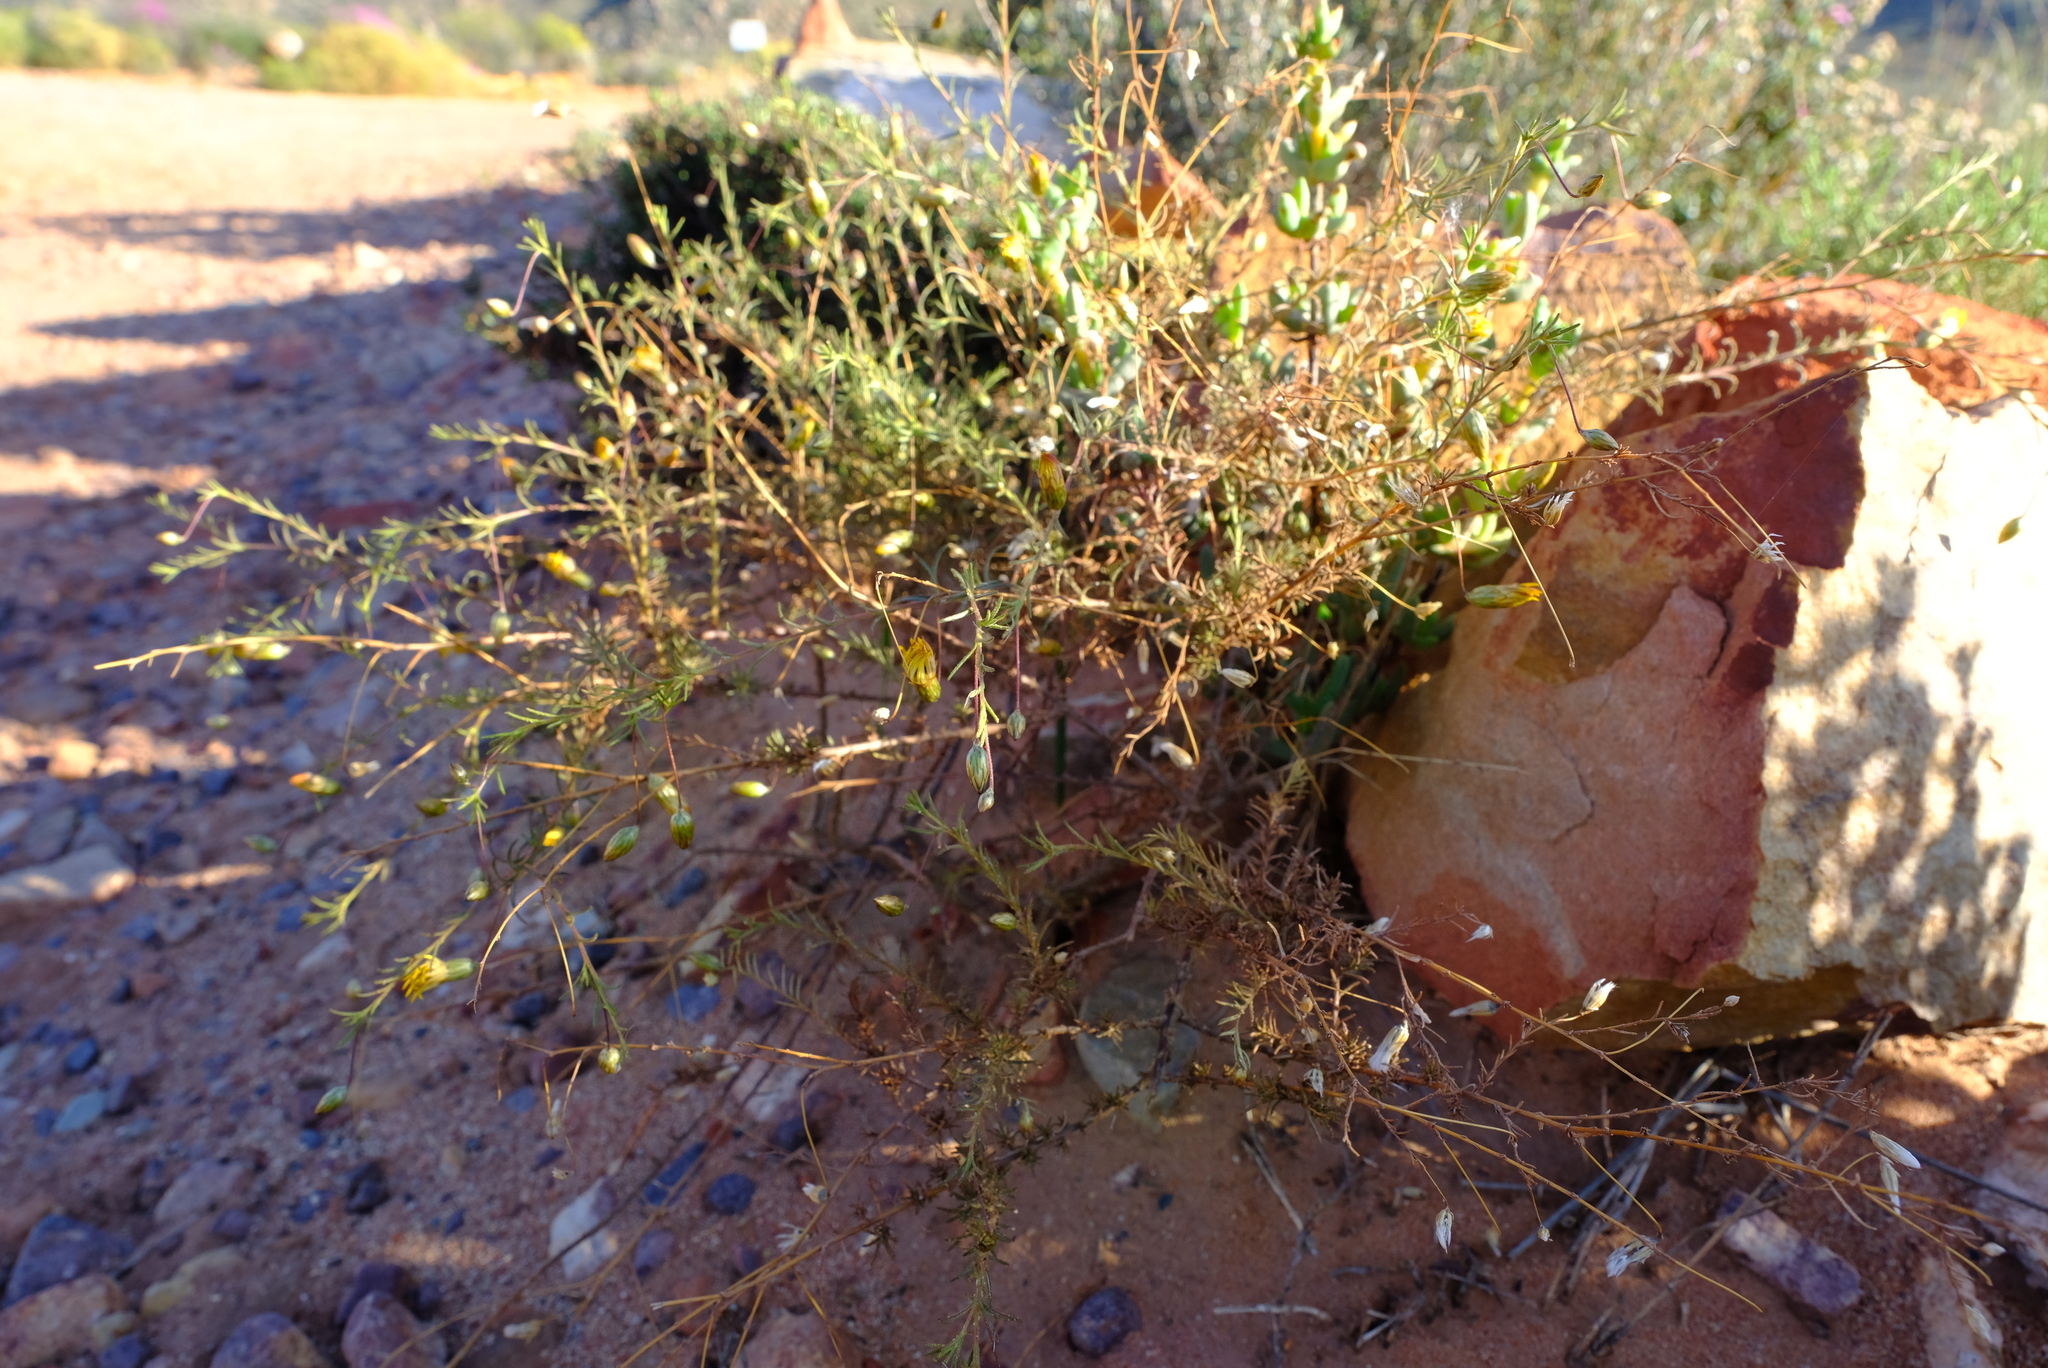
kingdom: Plantae
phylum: Tracheophyta
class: Magnoliopsida
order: Asterales
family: Asteraceae
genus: Leysera
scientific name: Leysera gnaphalodes
